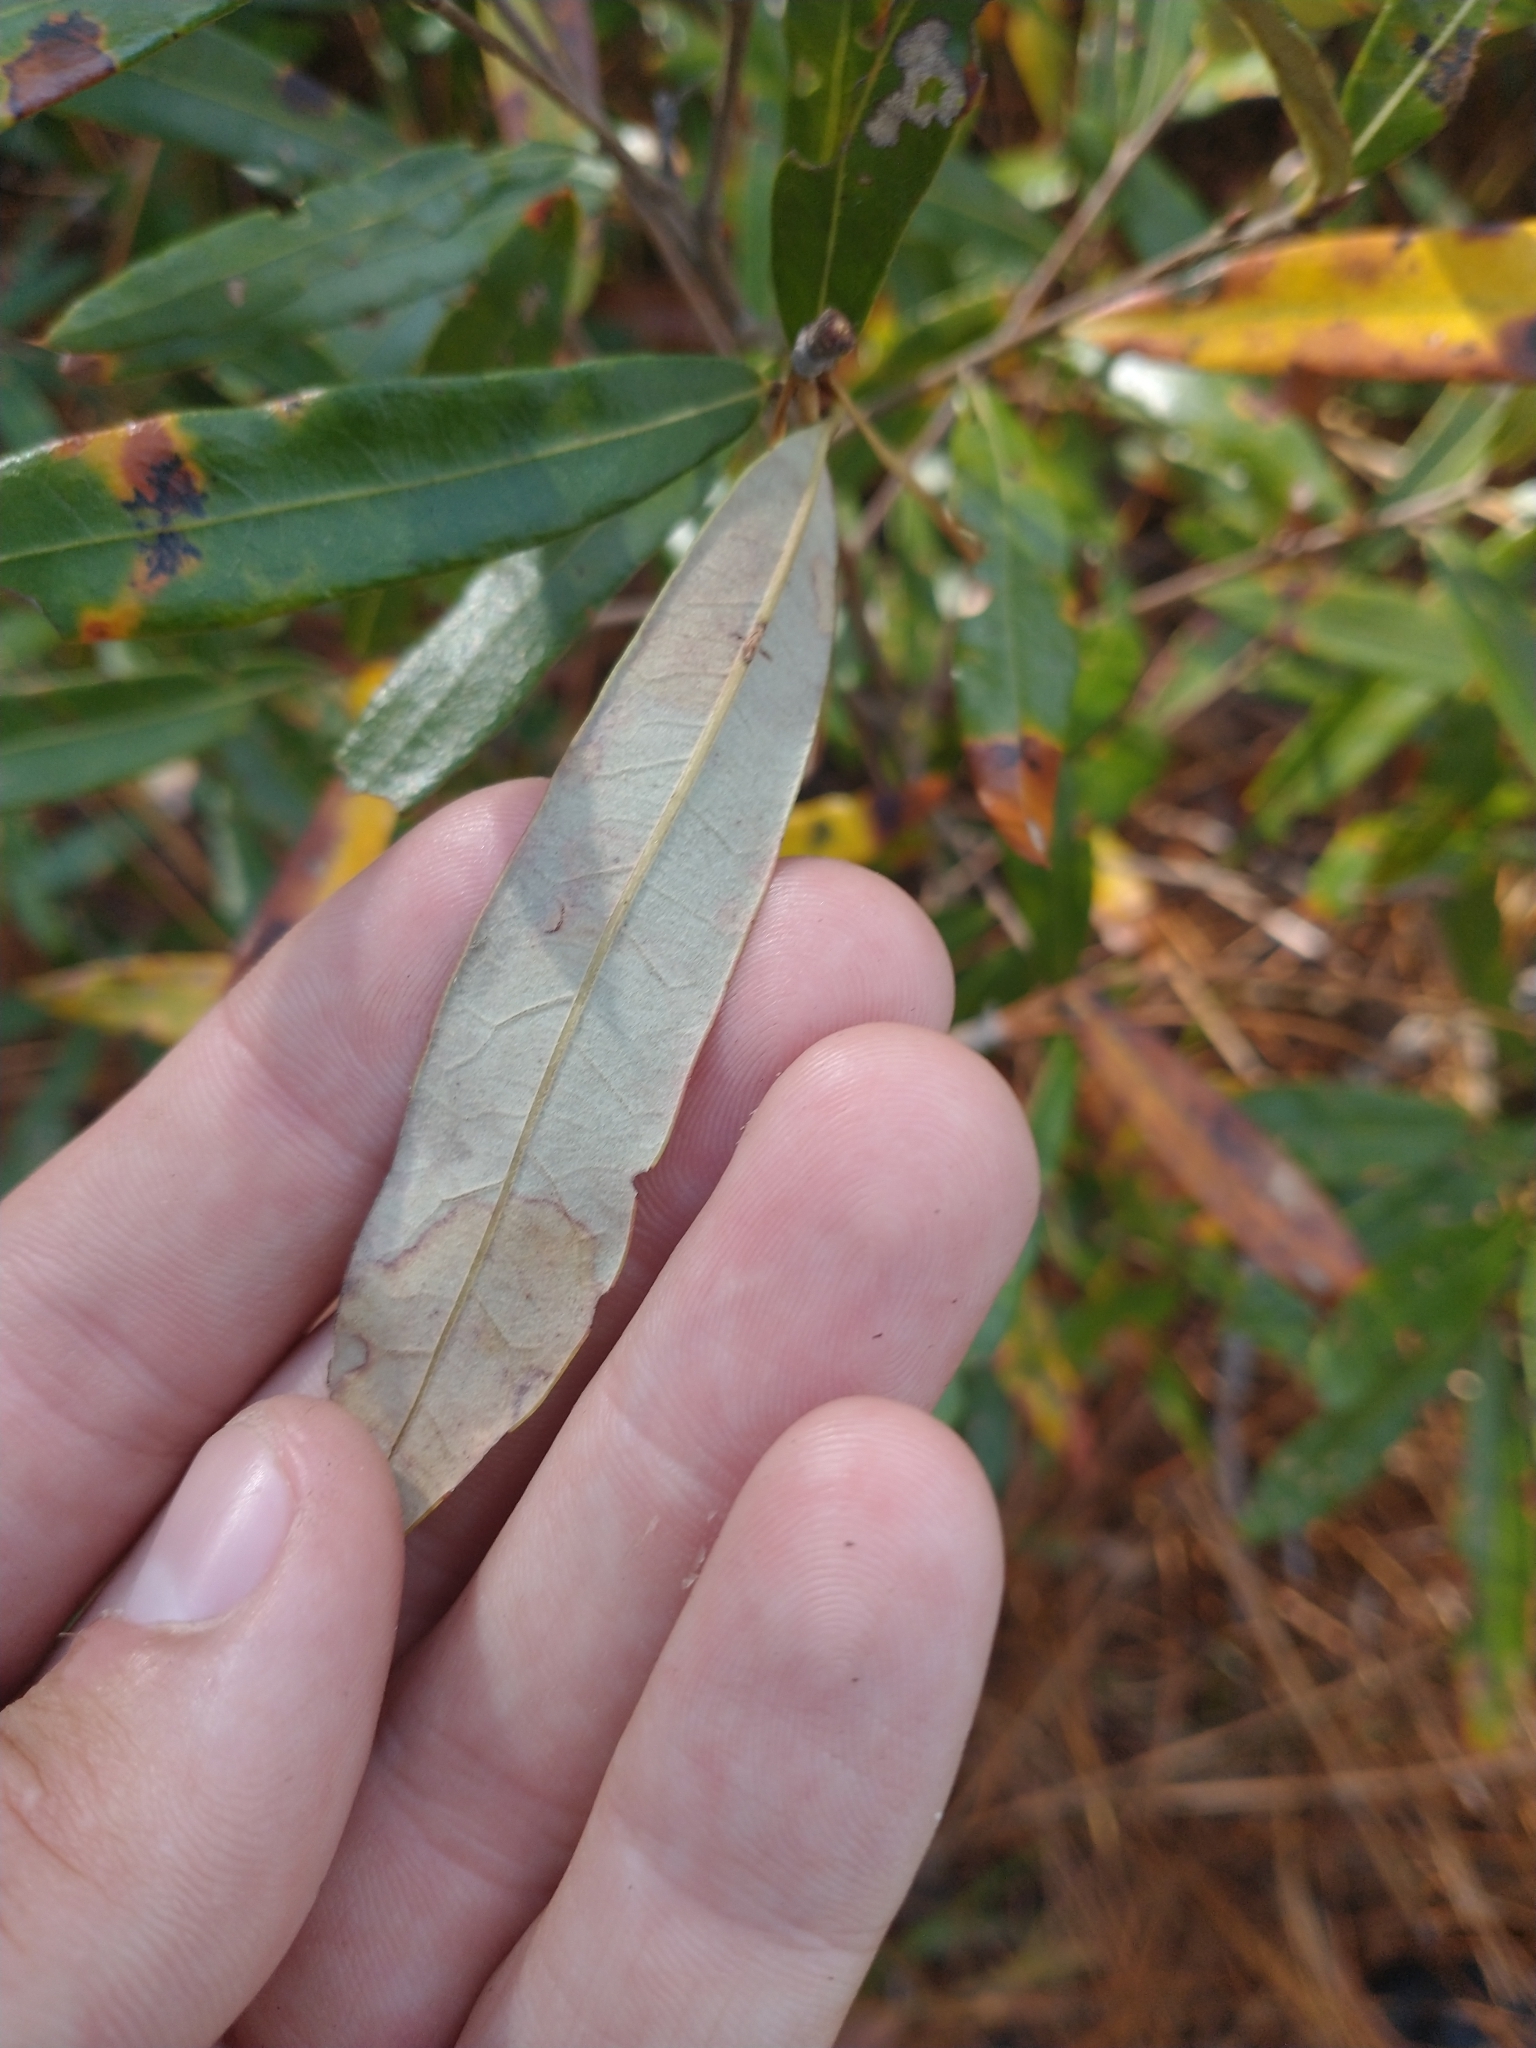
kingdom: Plantae
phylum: Tracheophyta
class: Magnoliopsida
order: Fagales
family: Fagaceae
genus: Quercus
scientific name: Quercus pumila
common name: Runner oak
